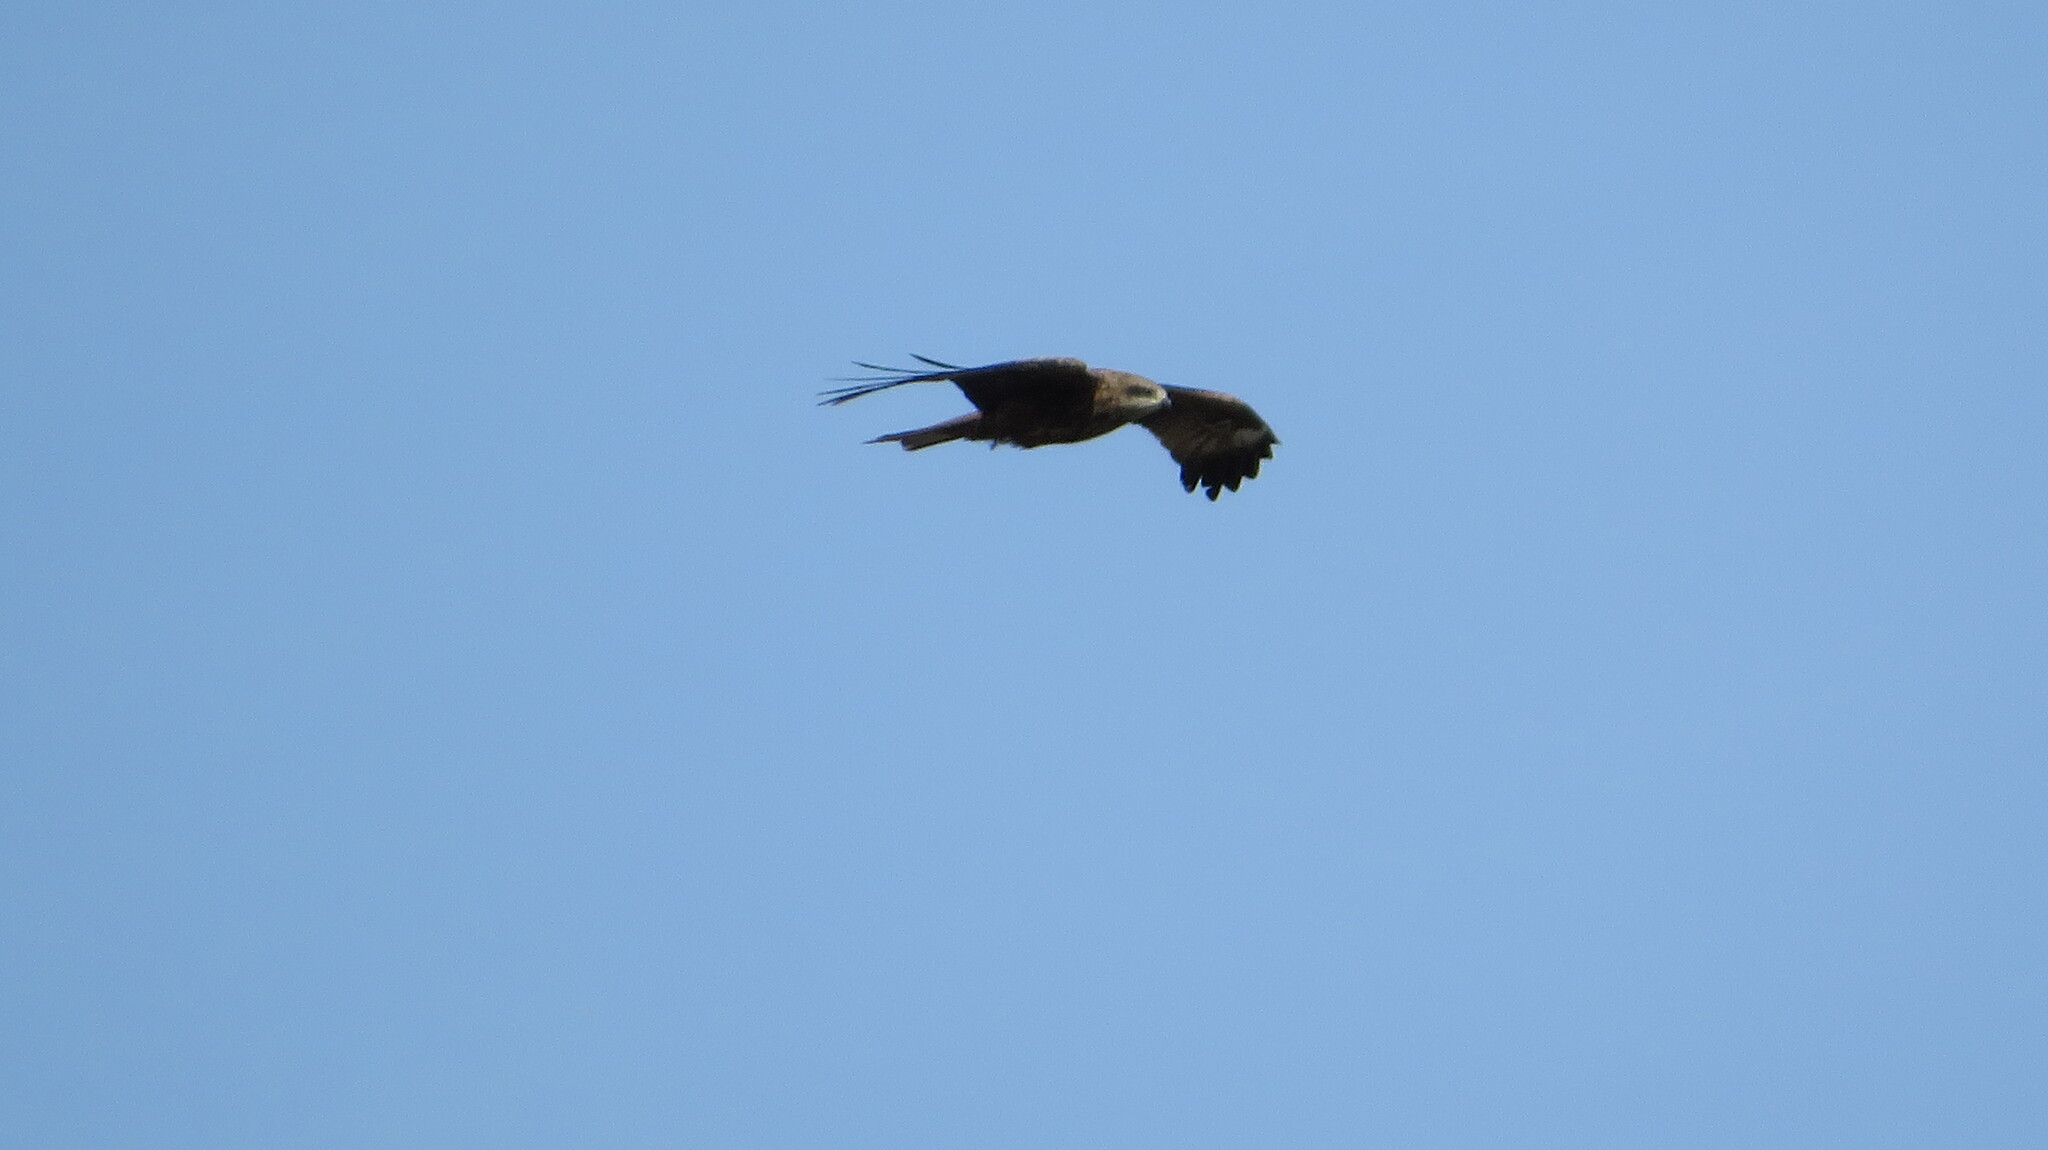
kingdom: Animalia
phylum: Chordata
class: Aves
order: Accipitriformes
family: Accipitridae
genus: Milvus
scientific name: Milvus migrans
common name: Black kite
